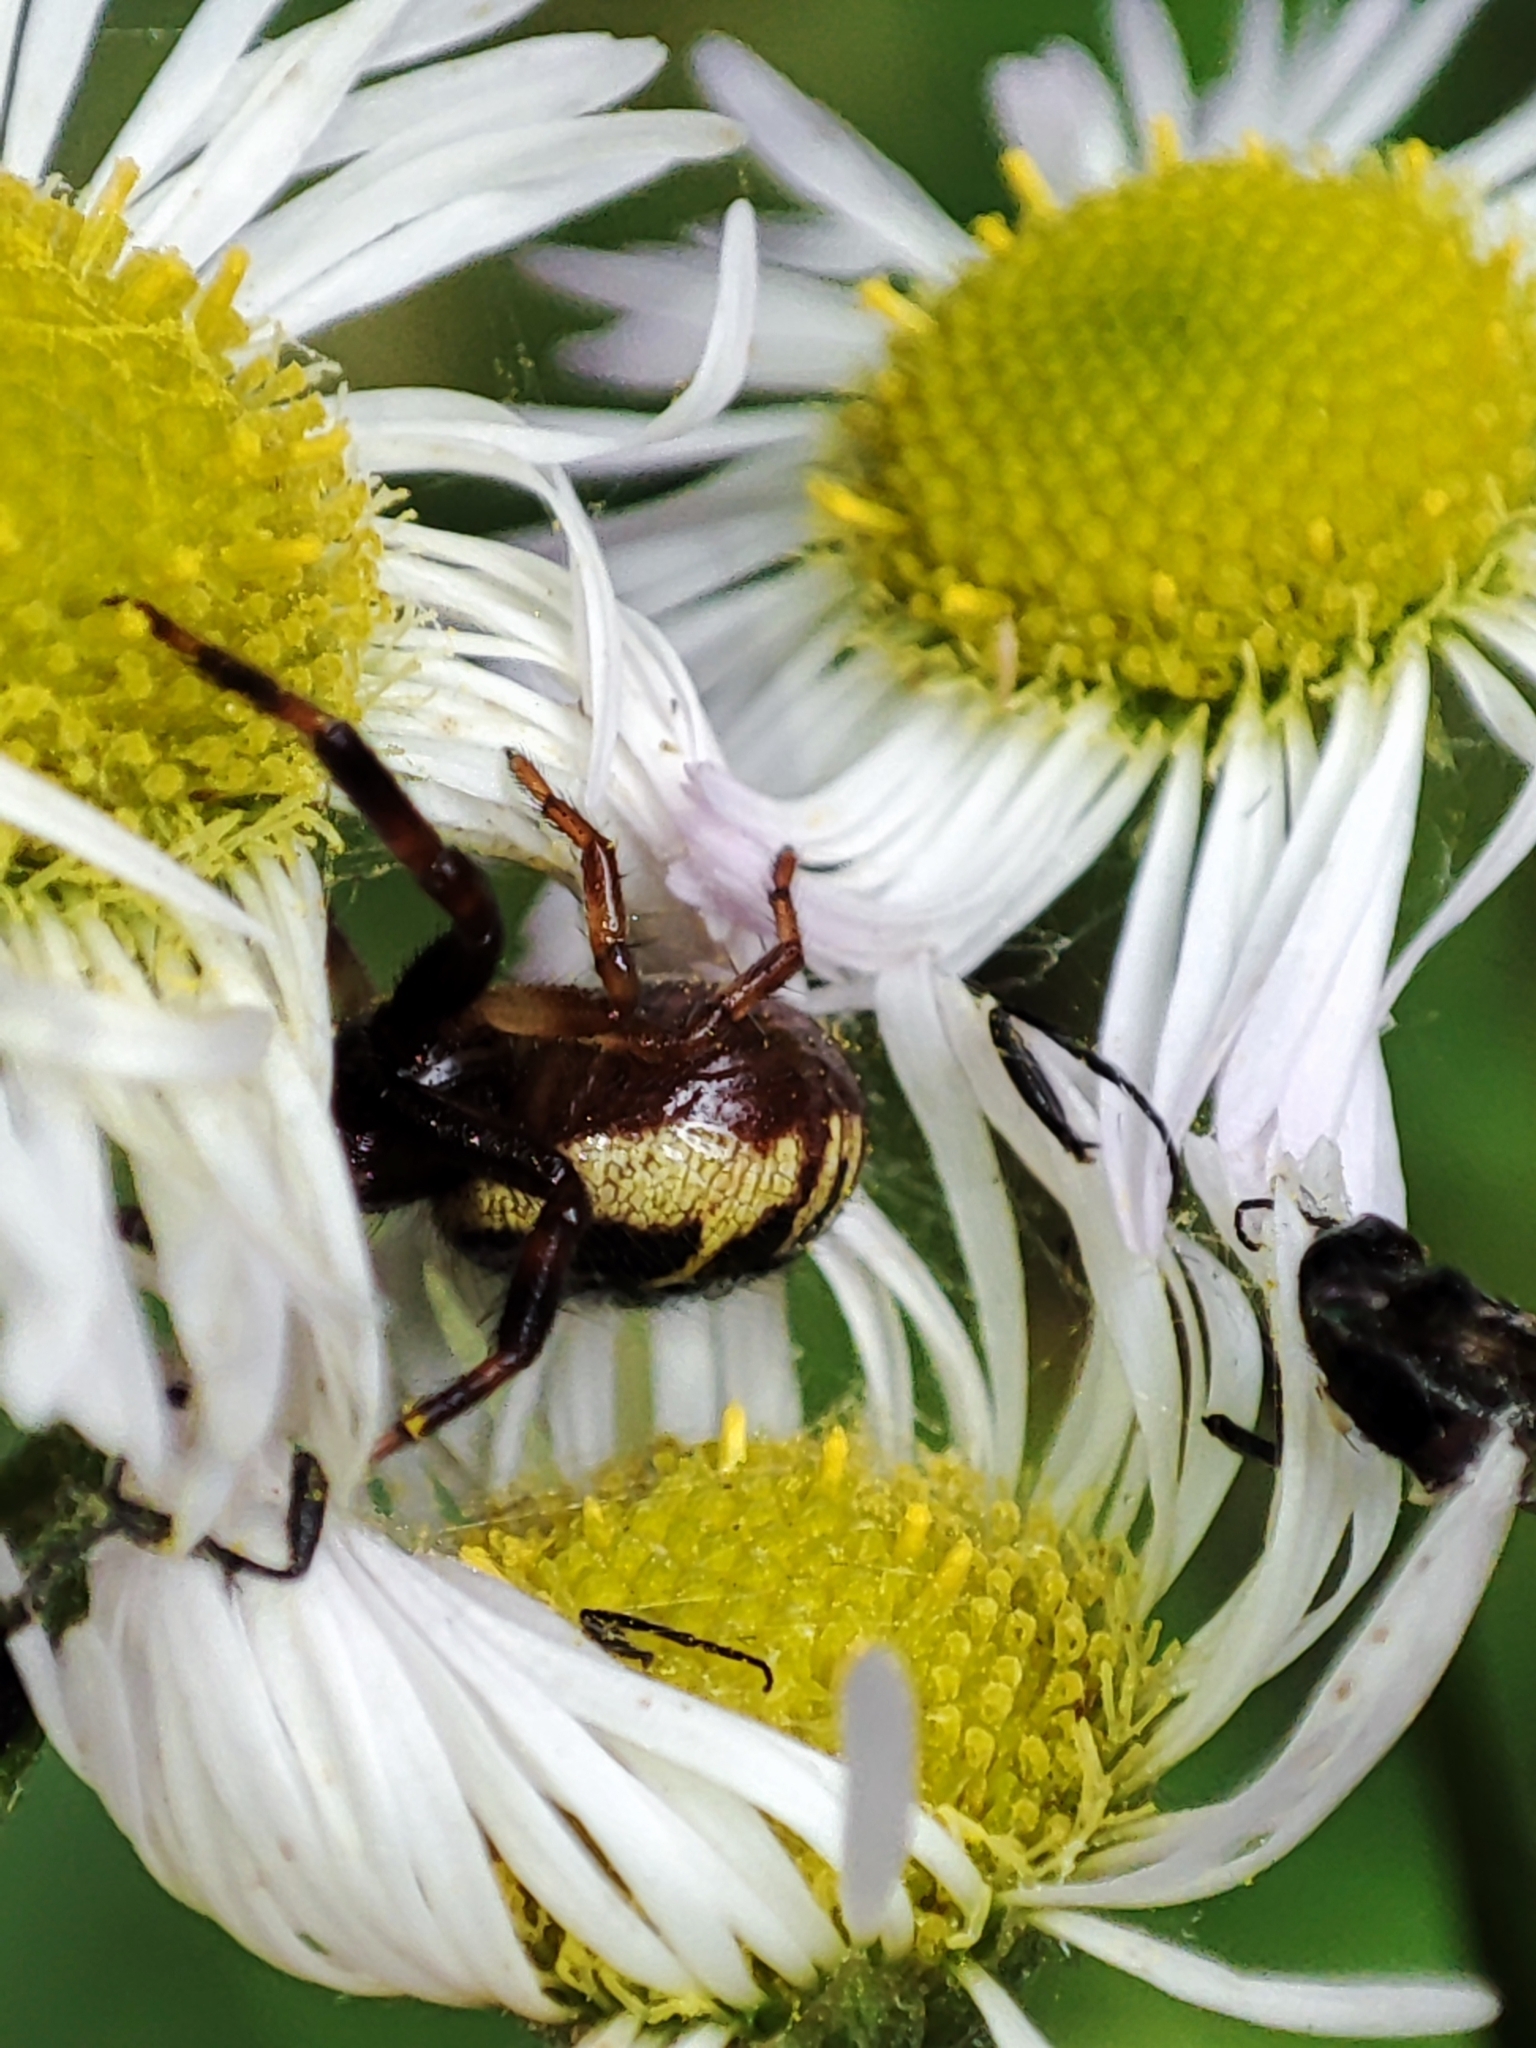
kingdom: Animalia
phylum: Arthropoda
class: Arachnida
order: Araneae
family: Thomisidae
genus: Synema
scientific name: Synema globosum
